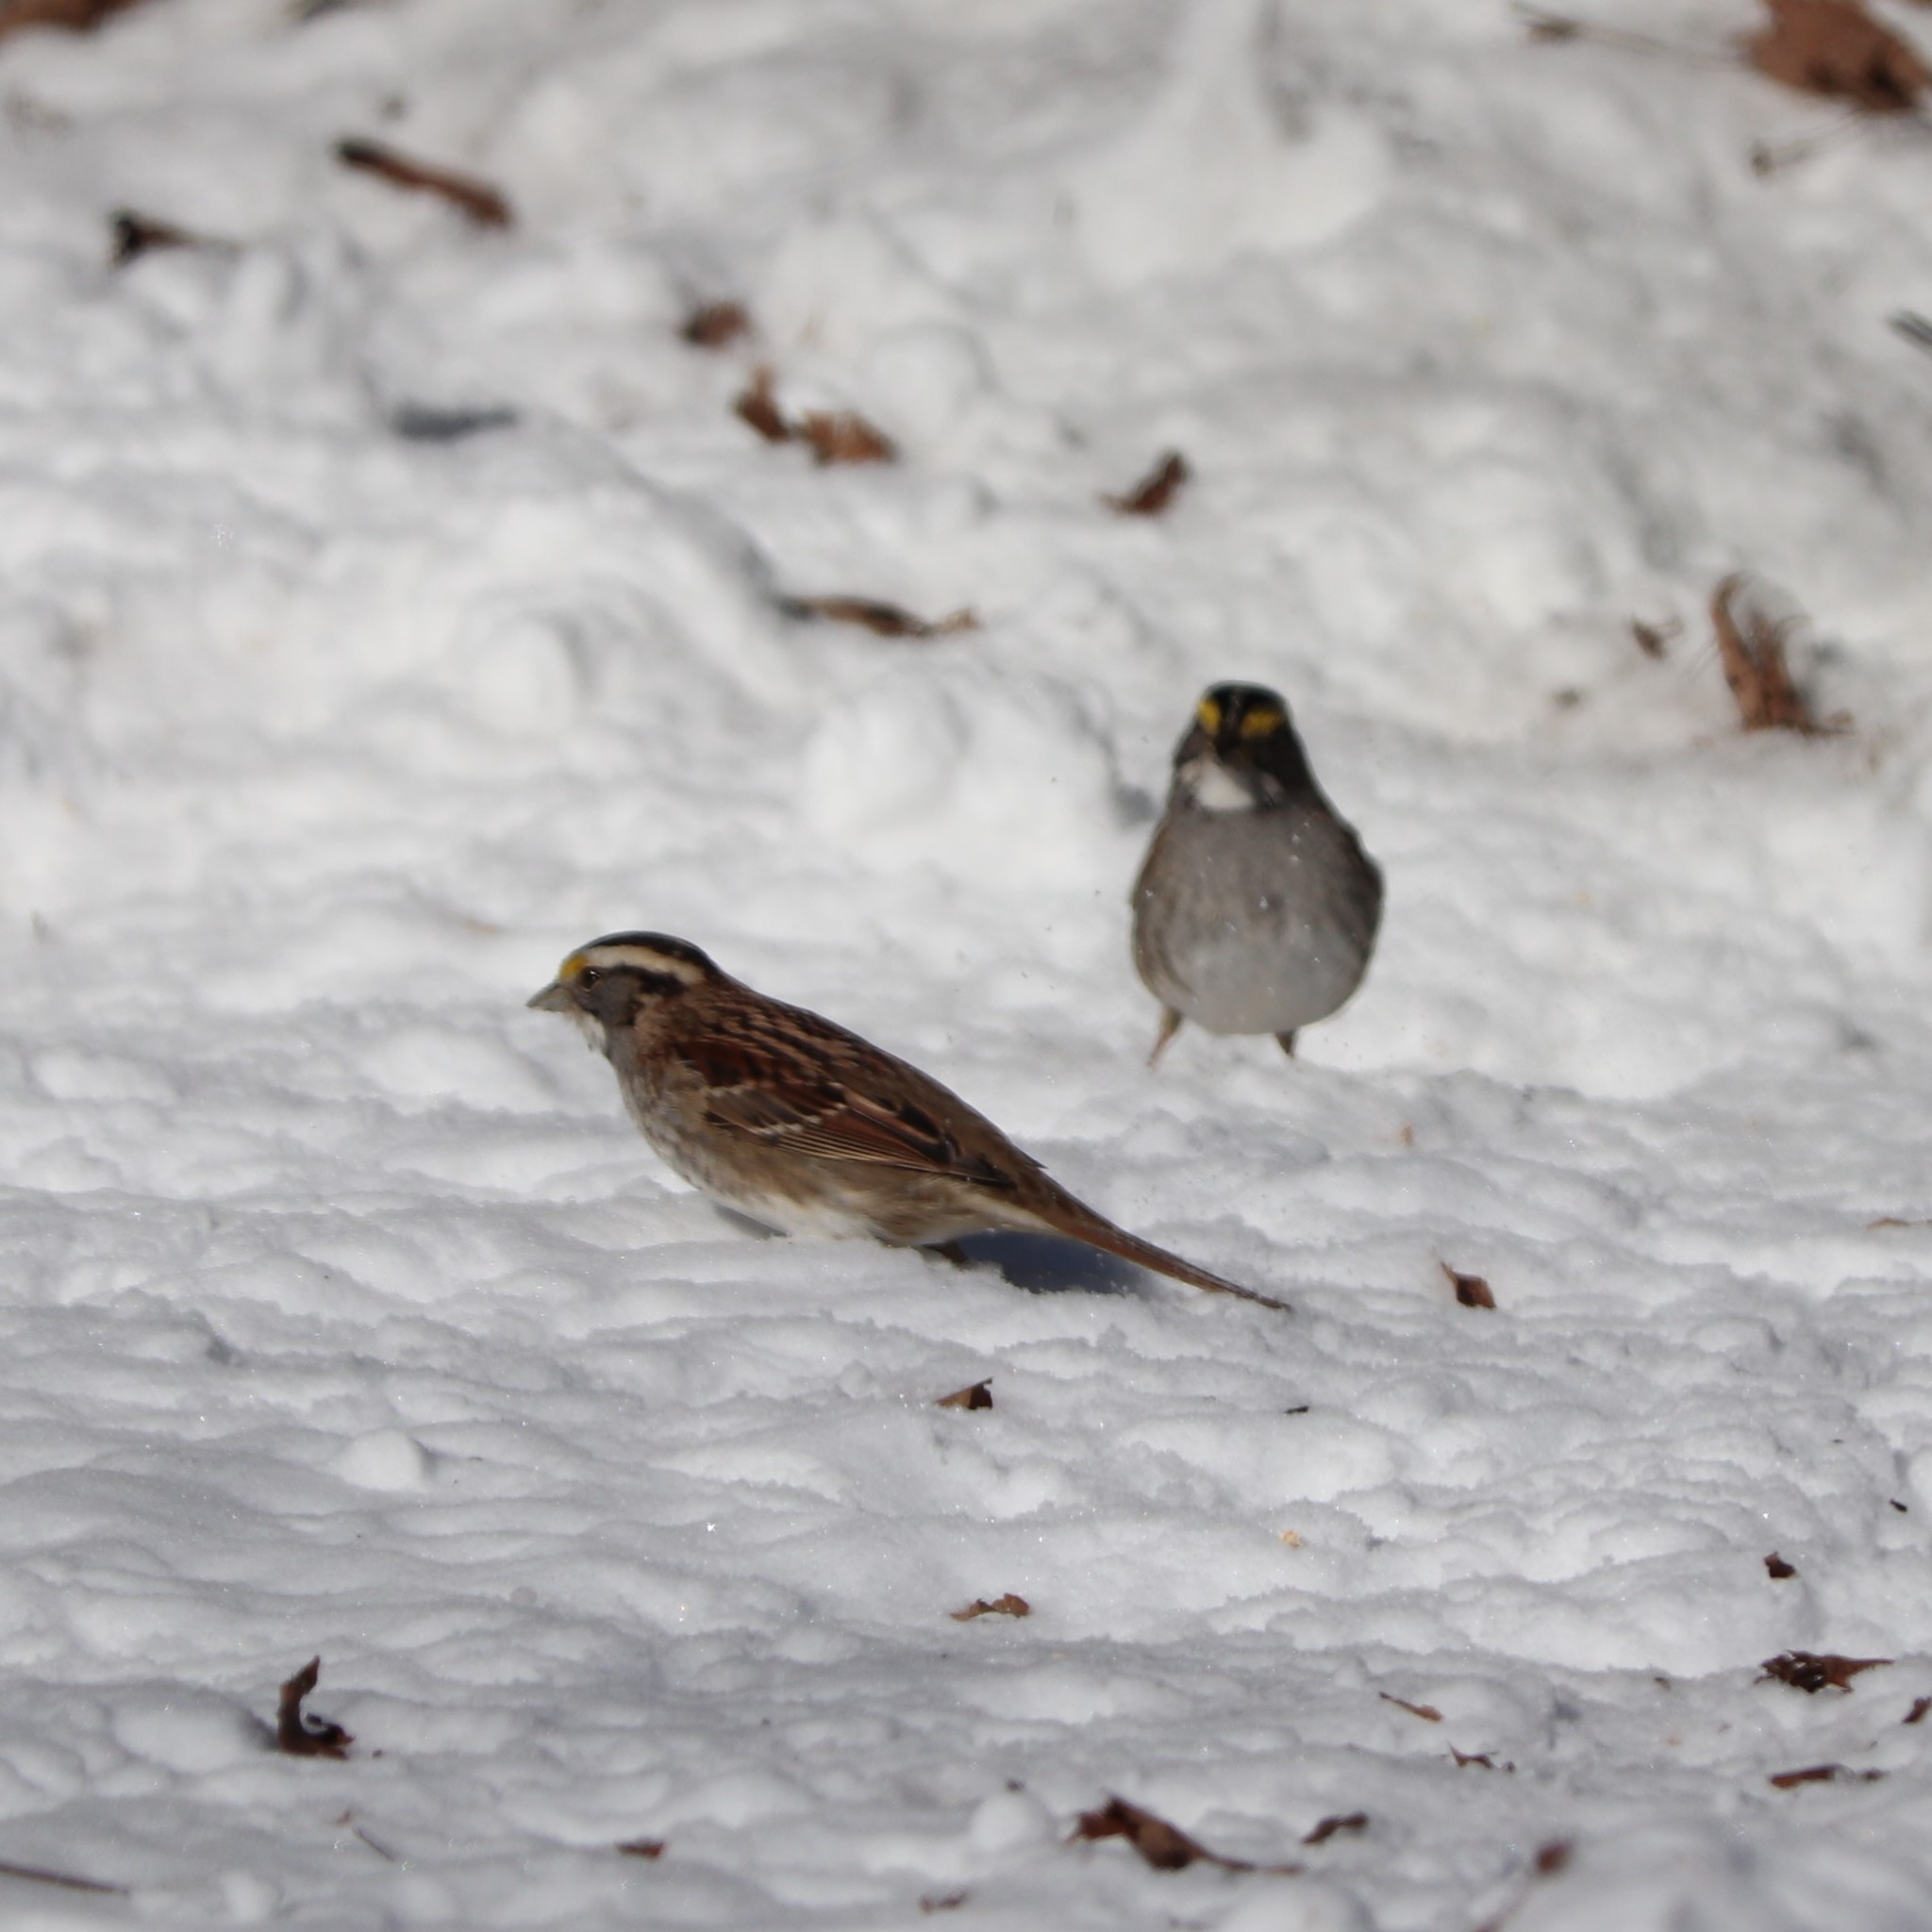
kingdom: Animalia
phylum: Chordata
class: Aves
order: Passeriformes
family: Passerellidae
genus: Zonotrichia
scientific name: Zonotrichia albicollis
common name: White-throated sparrow
